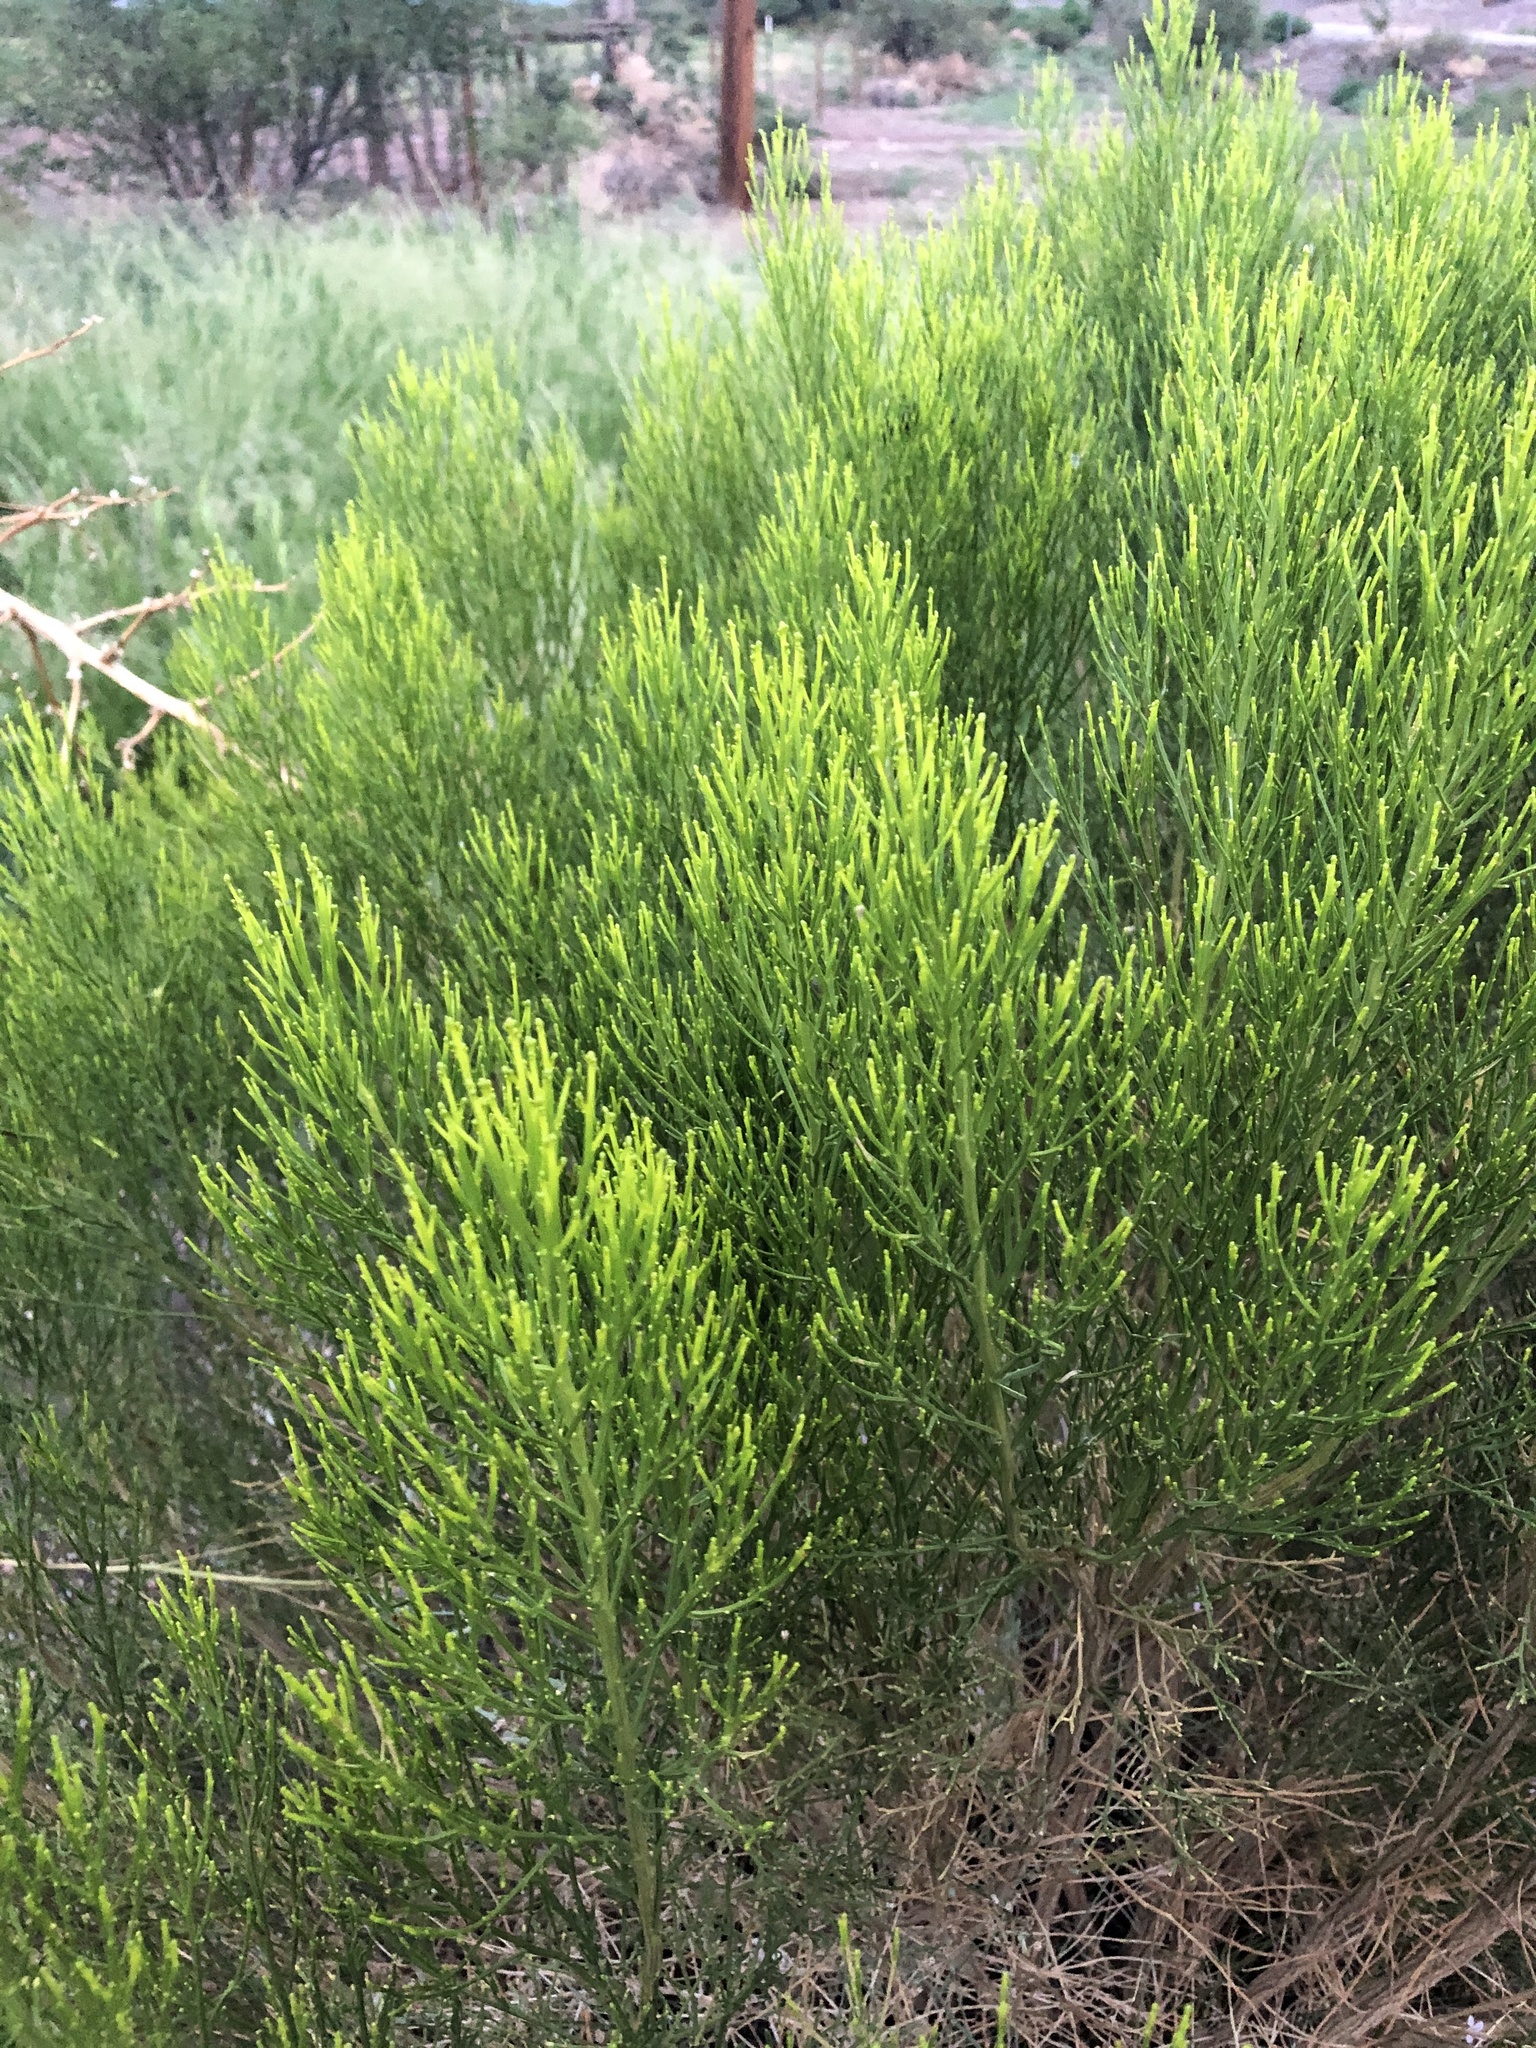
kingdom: Plantae
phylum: Tracheophyta
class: Magnoliopsida
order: Asterales
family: Asteraceae
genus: Baccharis
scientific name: Baccharis sarothroides
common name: Desert-broom
